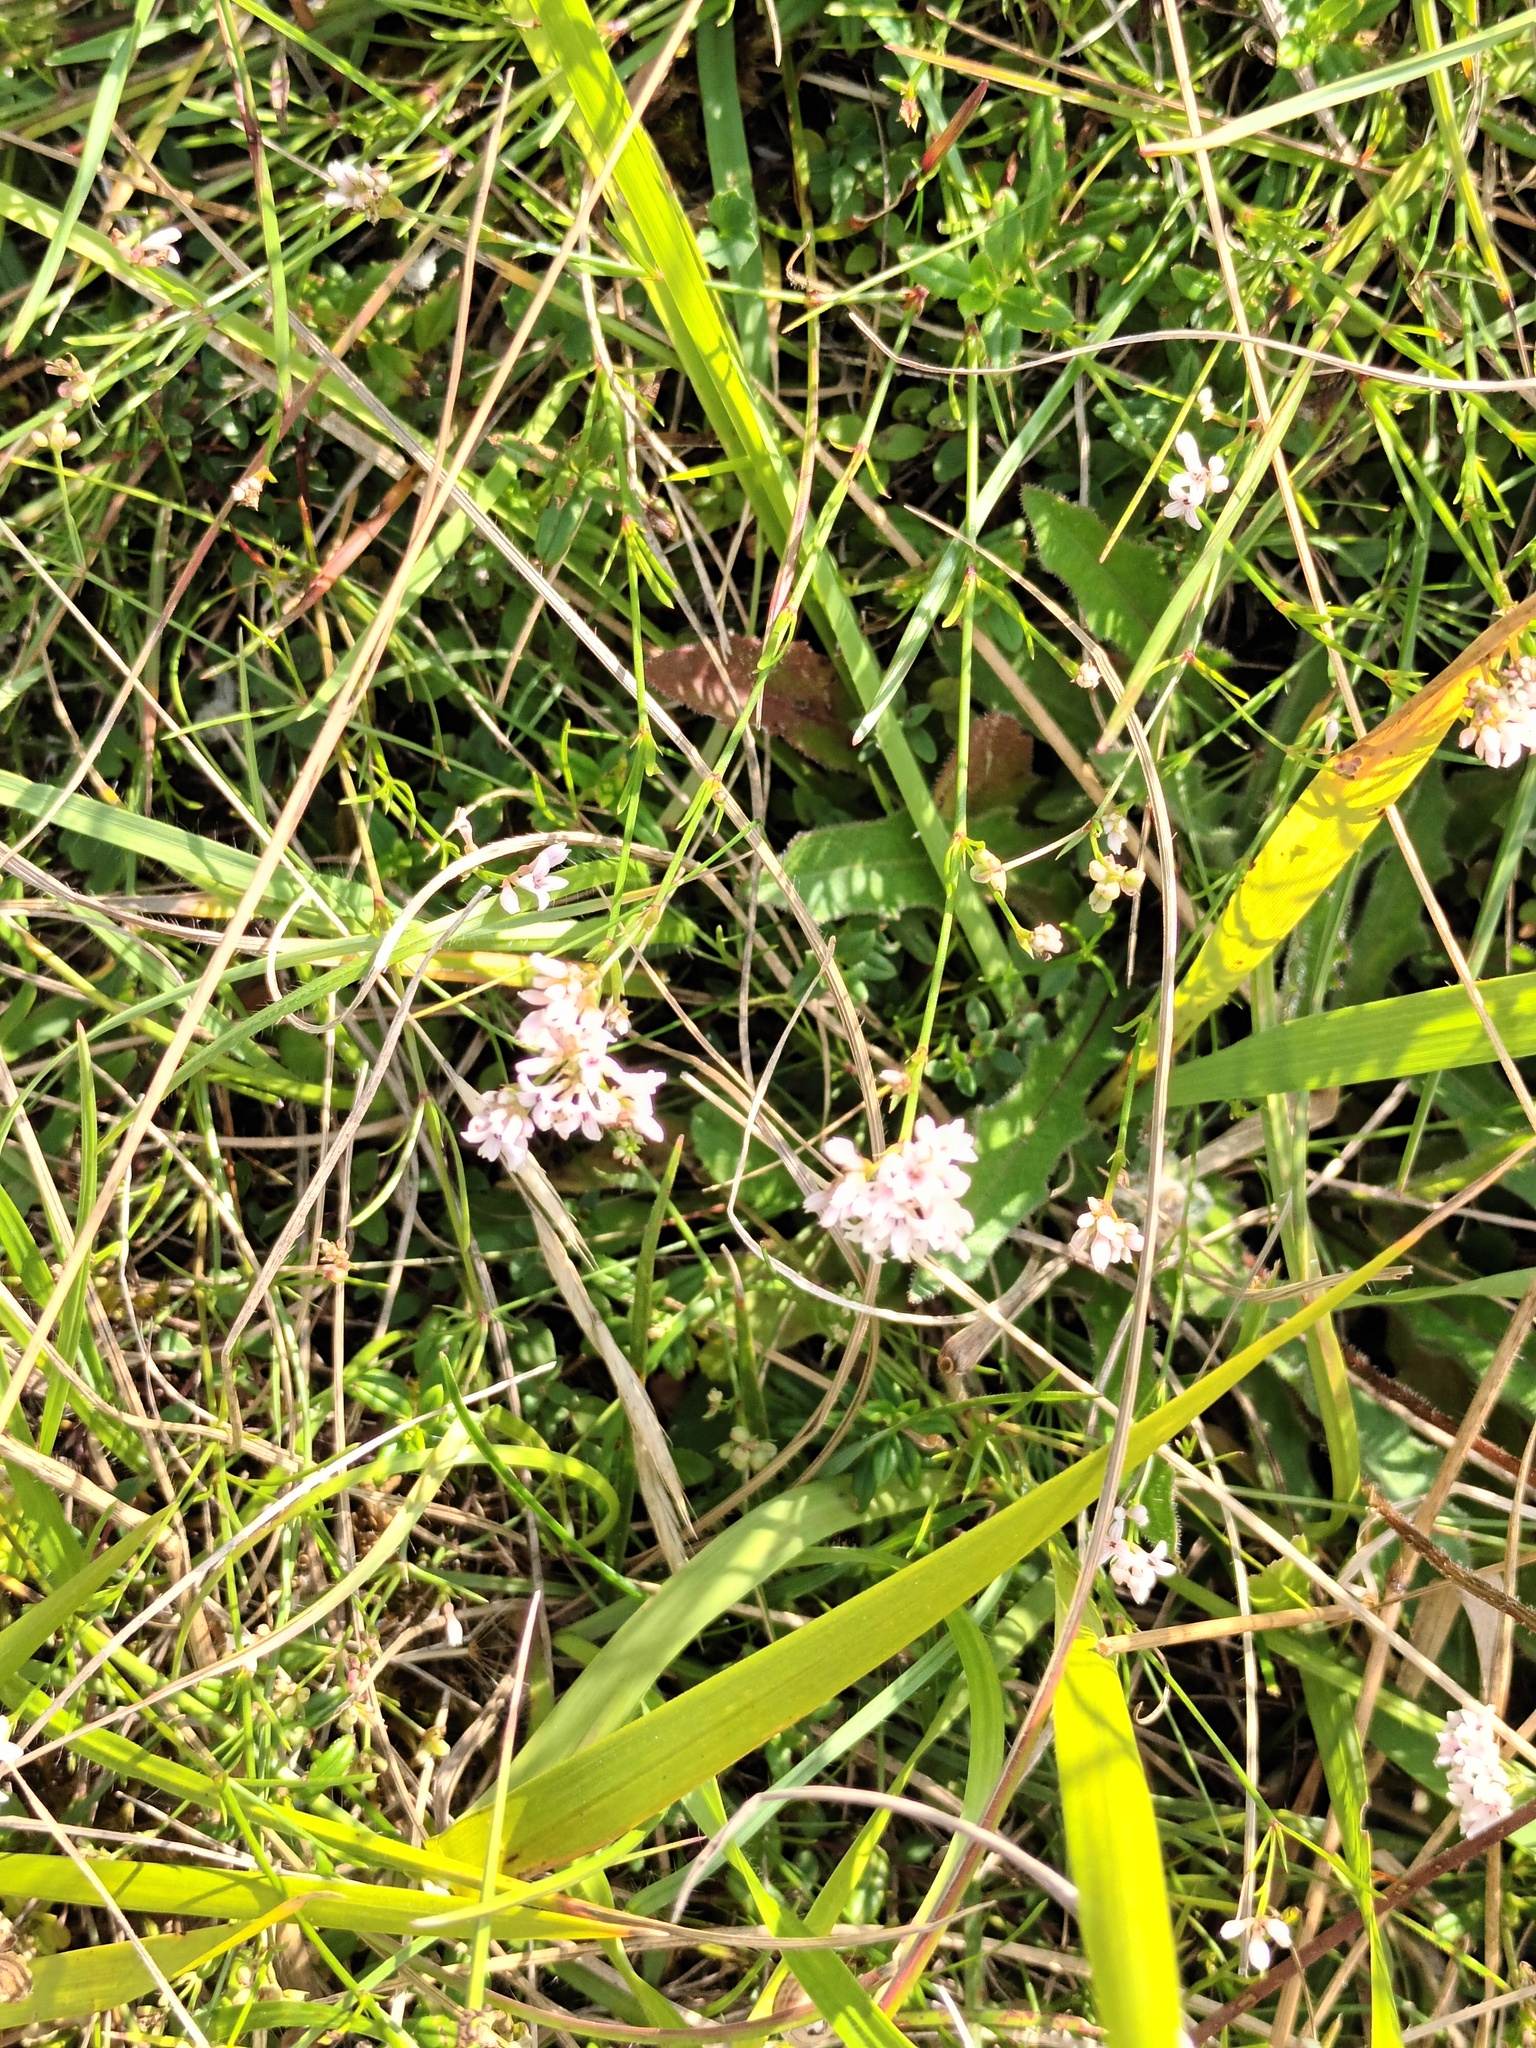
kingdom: Plantae
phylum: Tracheophyta
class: Magnoliopsida
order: Gentianales
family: Rubiaceae
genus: Cynanchica
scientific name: Cynanchica pyrenaica
